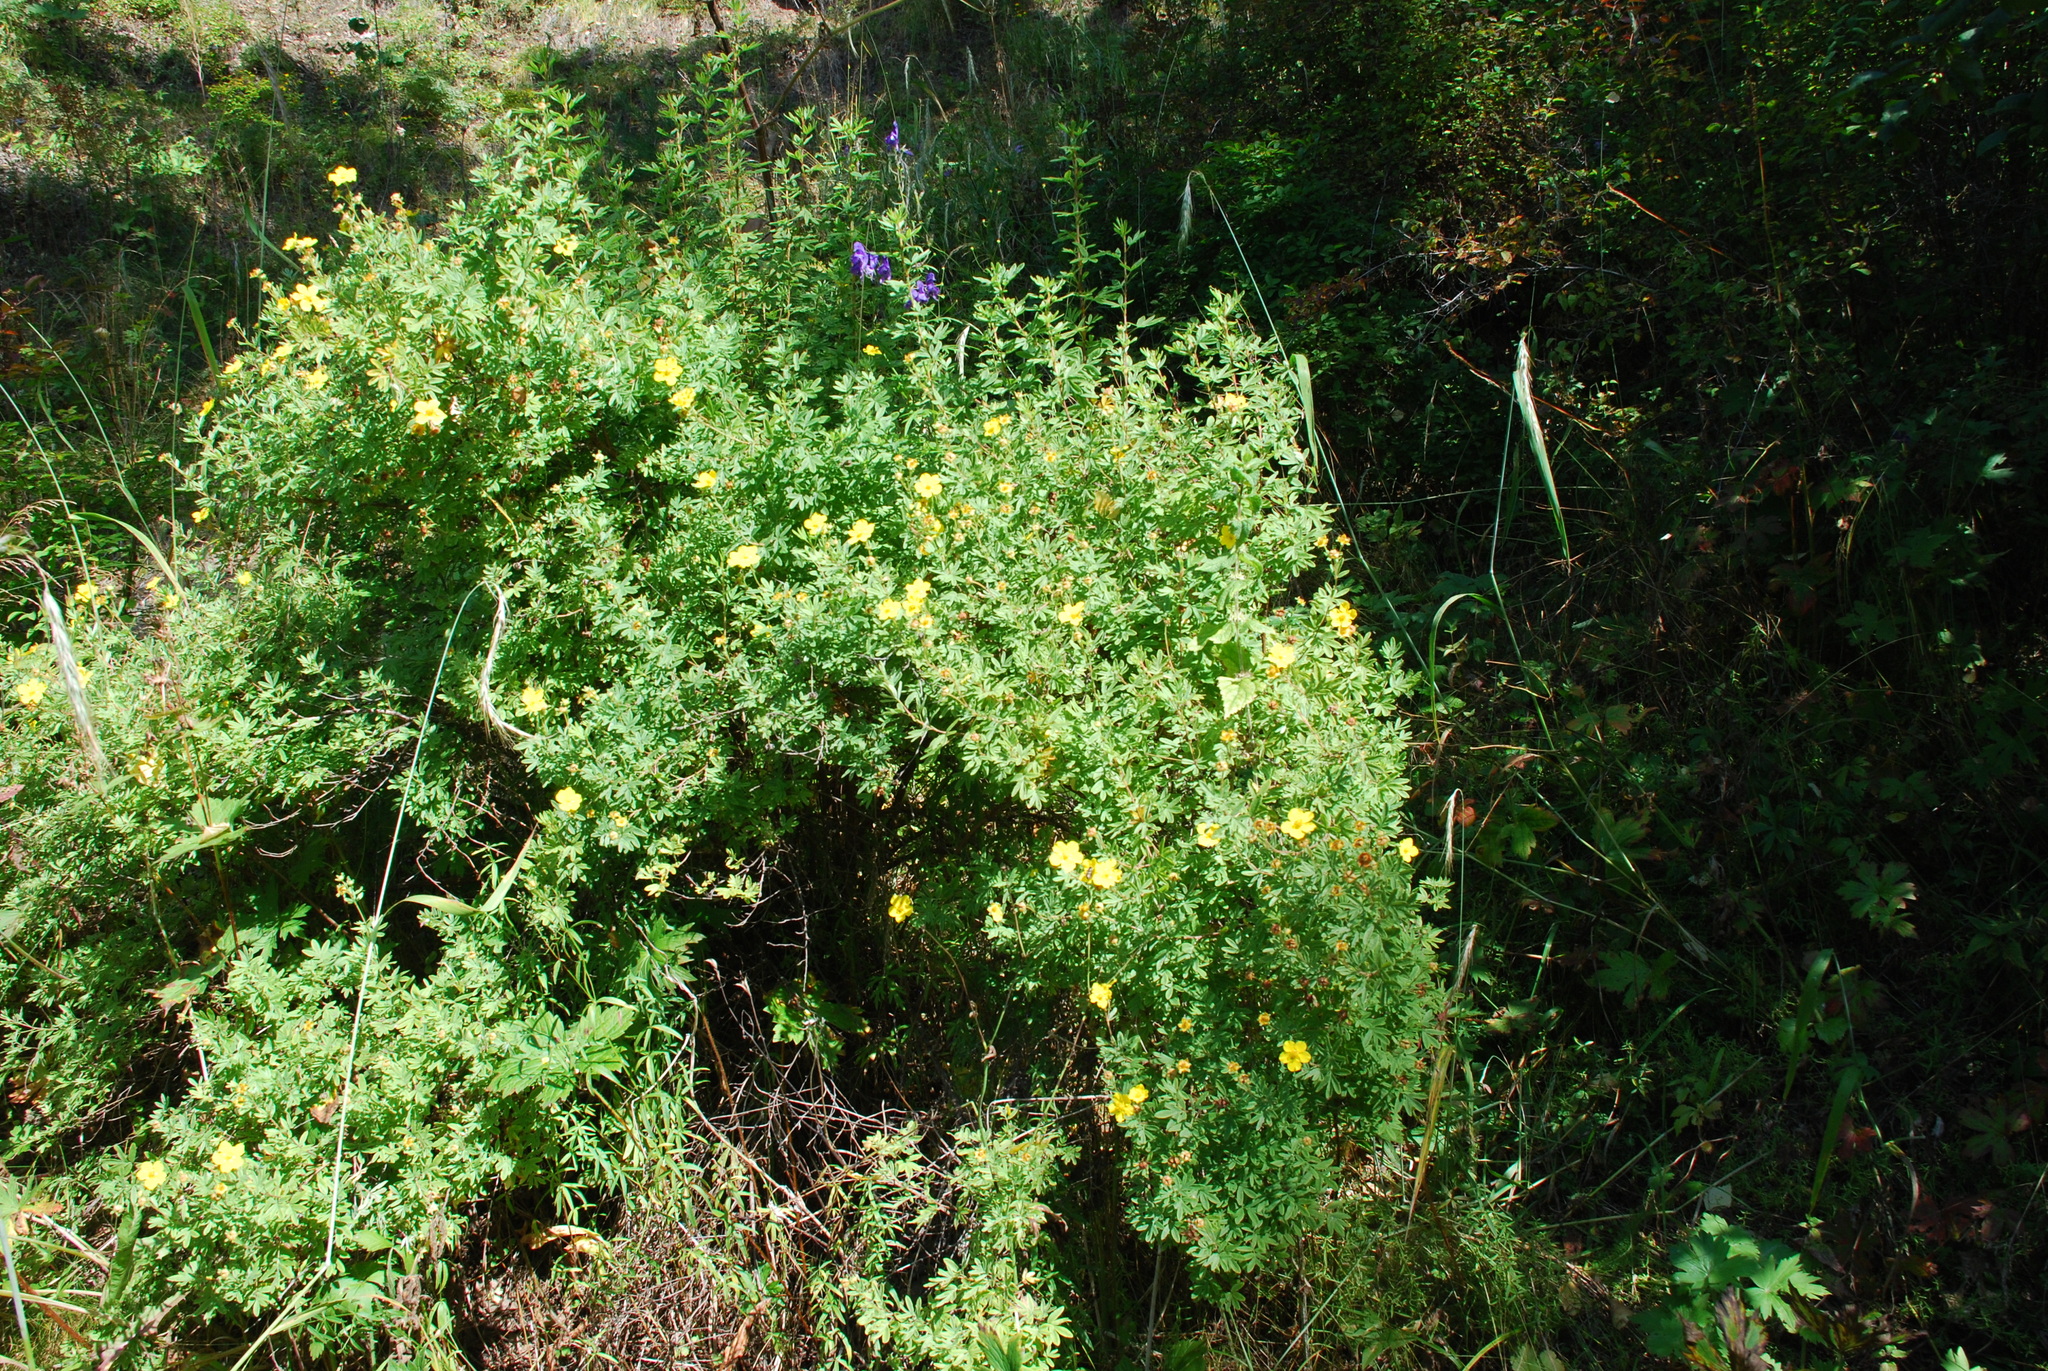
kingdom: Plantae
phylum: Tracheophyta
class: Magnoliopsida
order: Rosales
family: Rosaceae
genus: Dasiphora
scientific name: Dasiphora fruticosa
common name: Shrubby cinquefoil
